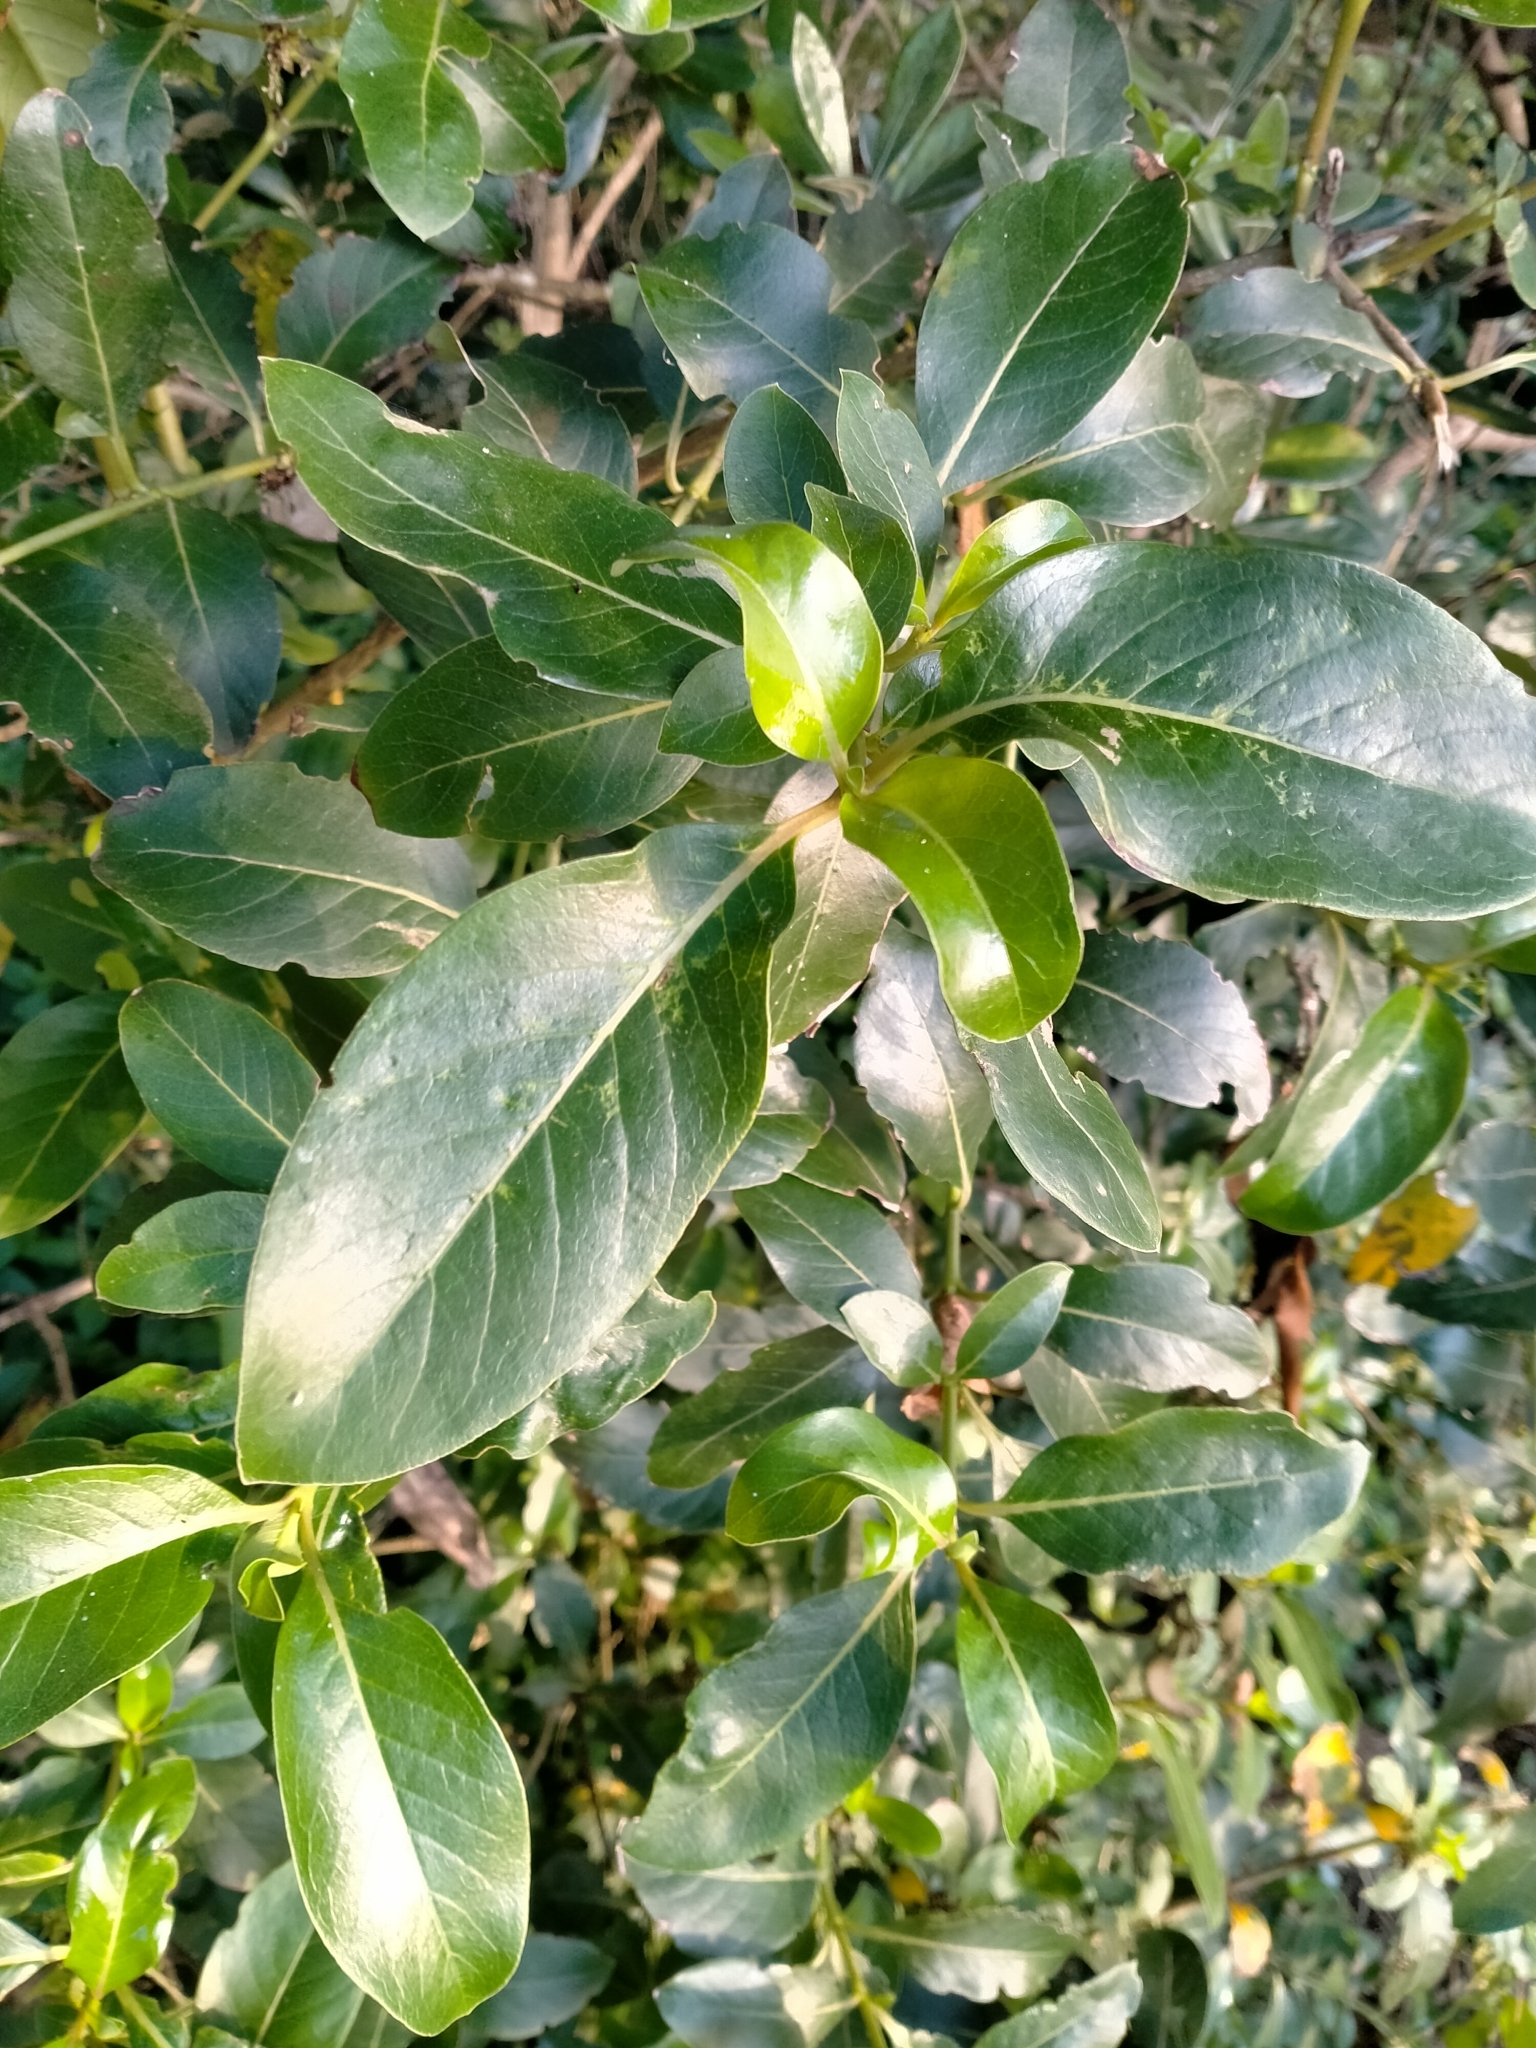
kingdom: Plantae
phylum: Tracheophyta
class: Magnoliopsida
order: Gentianales
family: Rubiaceae
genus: Coprosma
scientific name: Coprosma robusta
